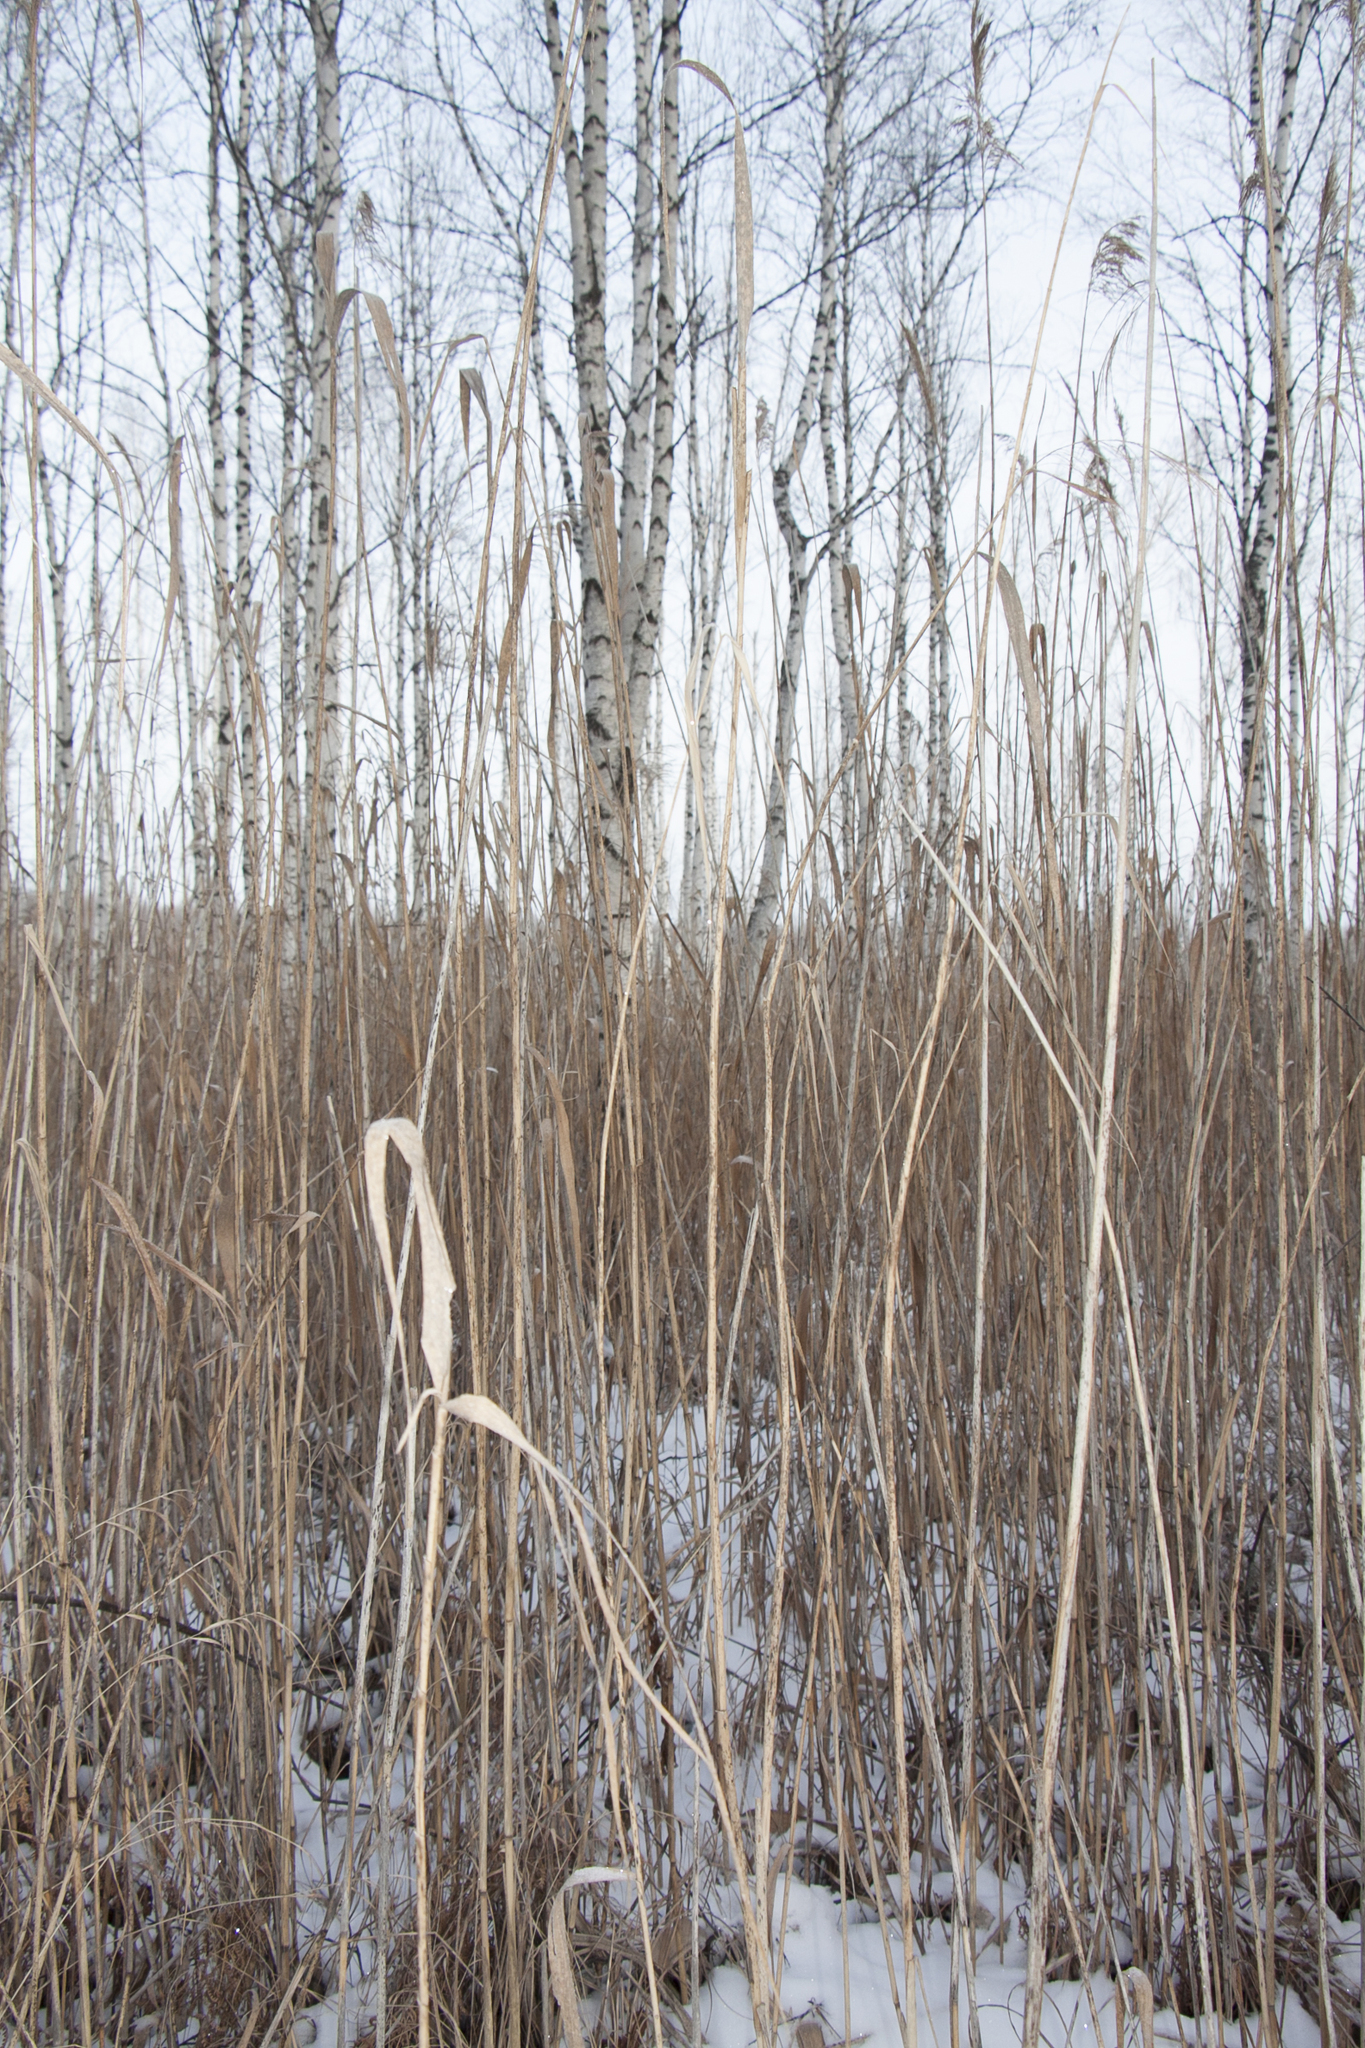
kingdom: Plantae
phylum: Tracheophyta
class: Liliopsida
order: Poales
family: Poaceae
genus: Phragmites
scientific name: Phragmites australis
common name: Common reed
